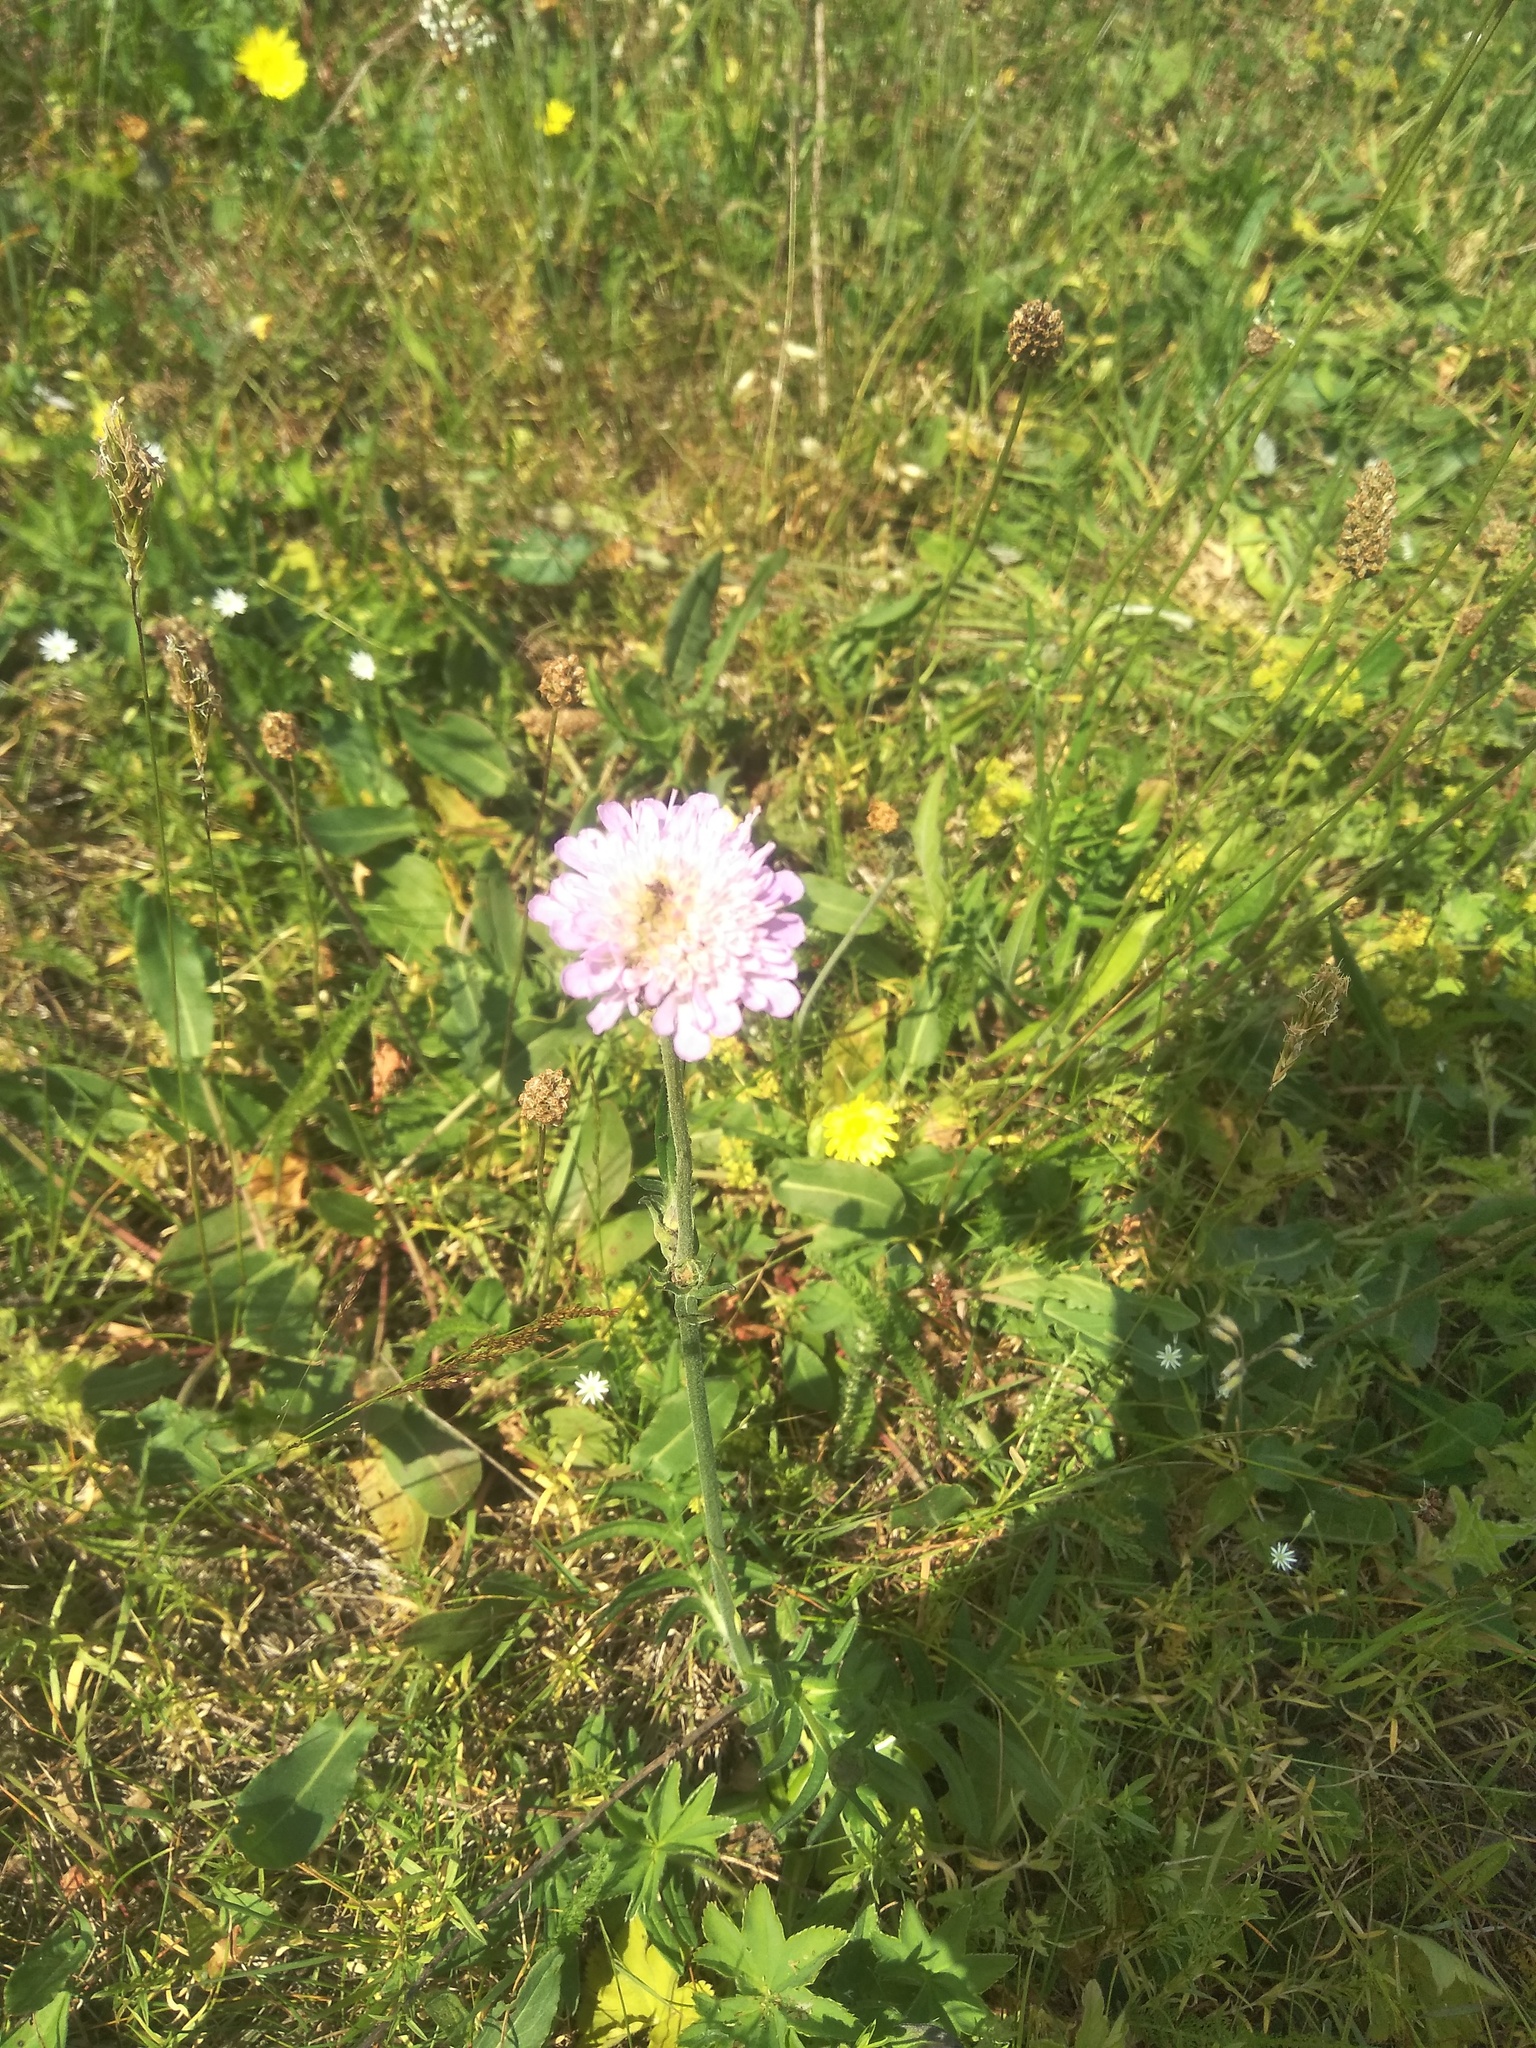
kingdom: Plantae
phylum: Tracheophyta
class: Magnoliopsida
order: Dipsacales
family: Caprifoliaceae
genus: Knautia
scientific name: Knautia arvensis
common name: Field scabiosa
